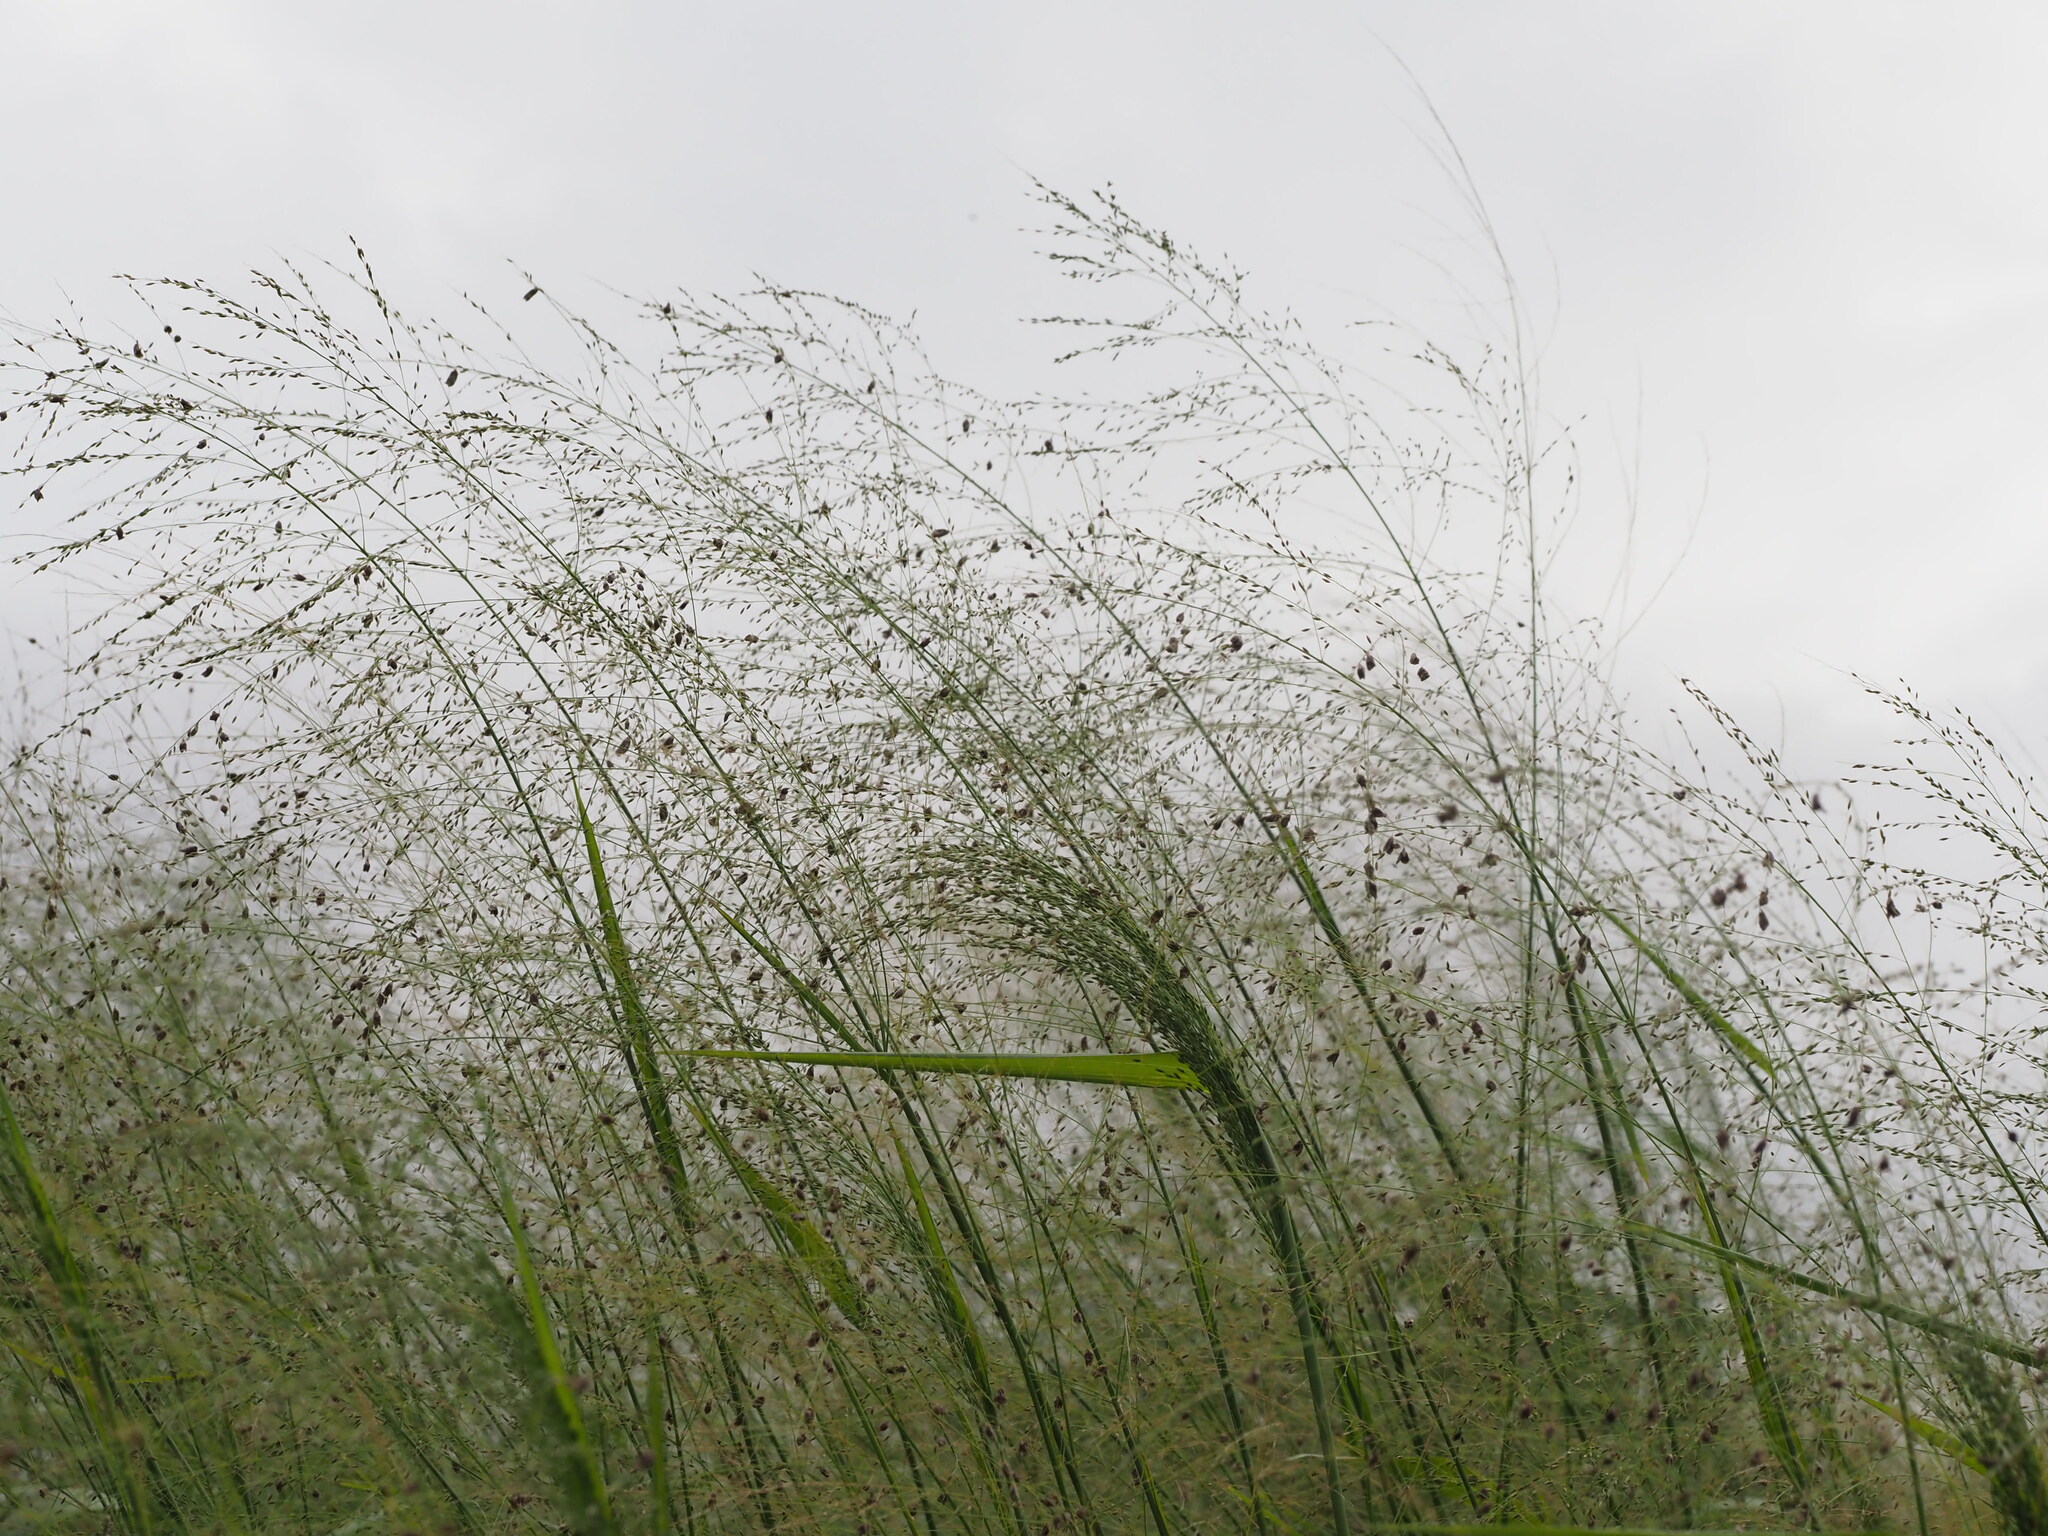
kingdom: Fungi
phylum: Basidiomycota
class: Exobasidiomycetes
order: Tilletiales
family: Tilletiaceae
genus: Conidiosporomyces
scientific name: Conidiosporomyces ayresii
